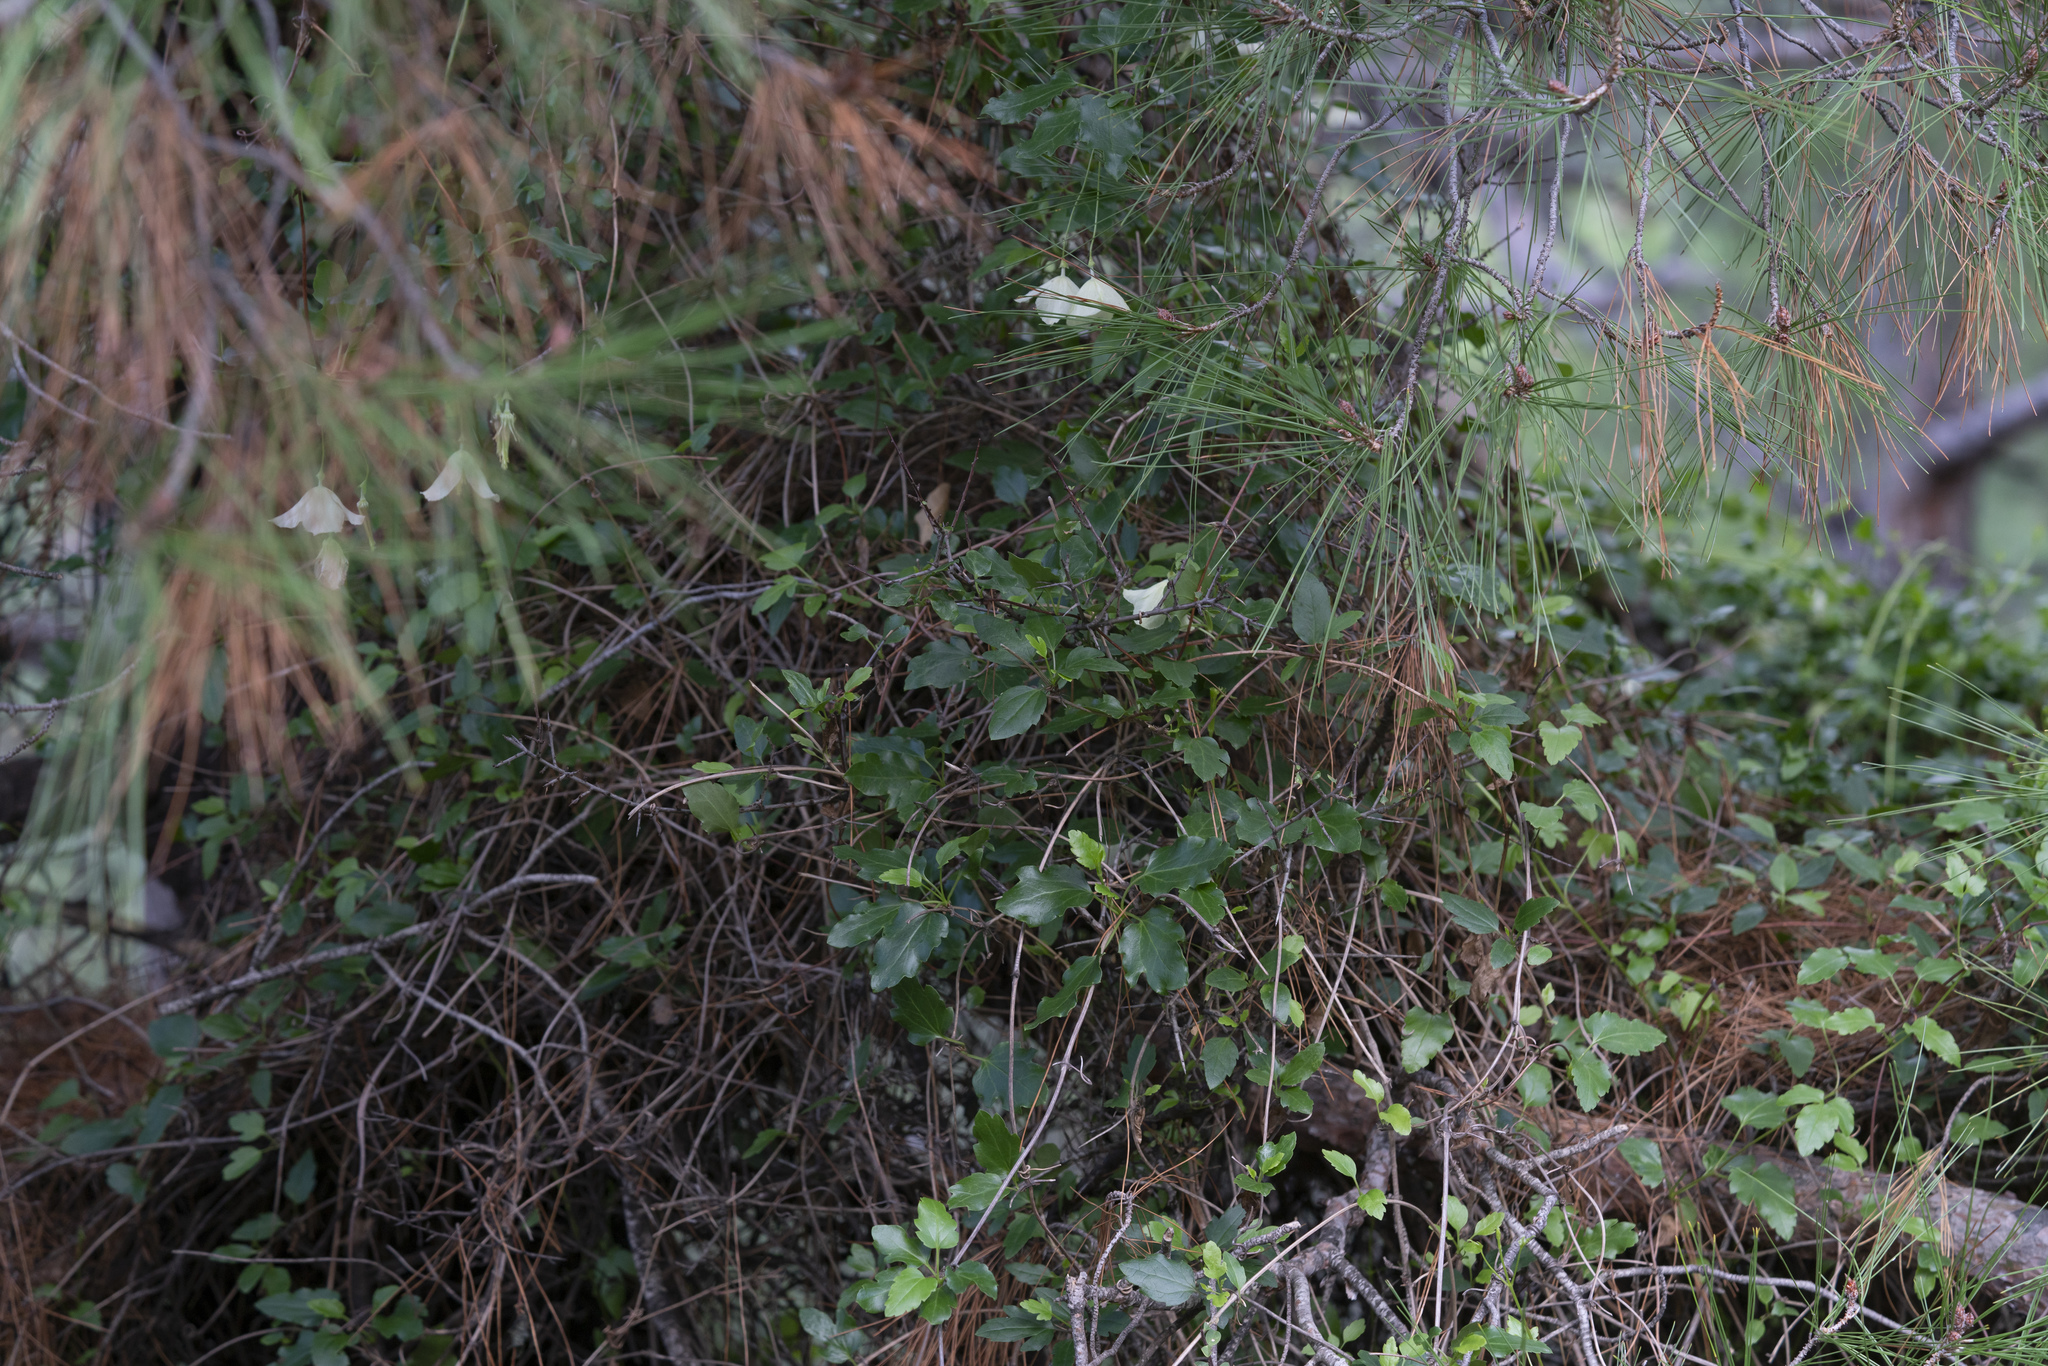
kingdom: Plantae
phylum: Tracheophyta
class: Magnoliopsida
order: Ranunculales
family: Ranunculaceae
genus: Clematis
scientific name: Clematis cirrhosa
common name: Early virgin's-bower
